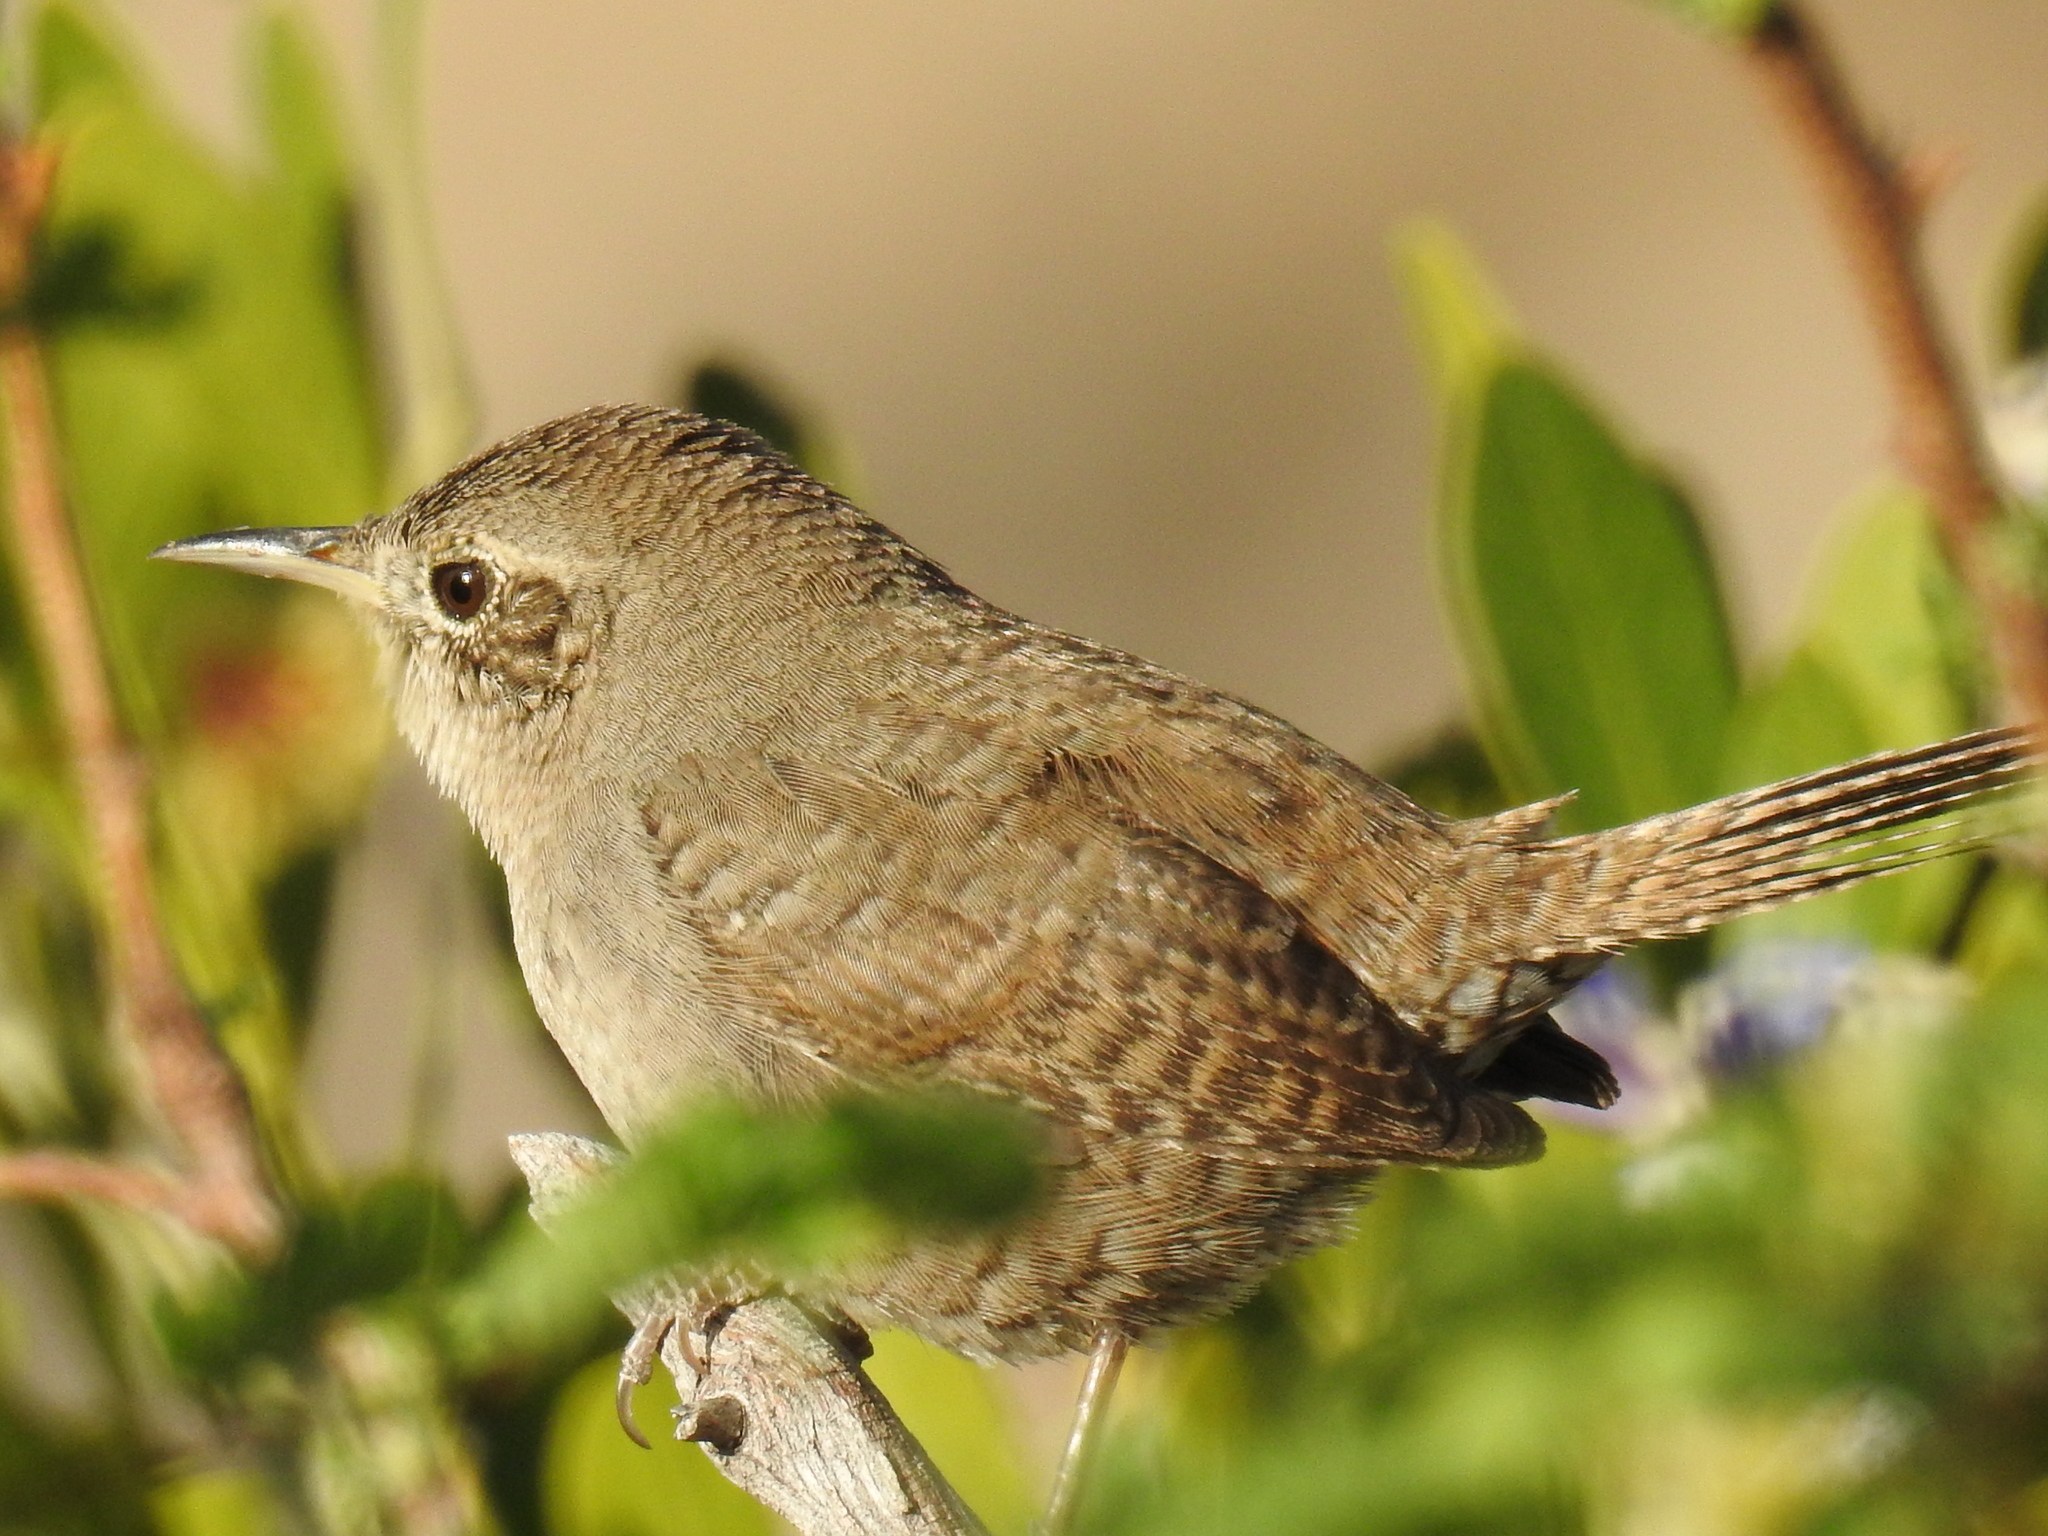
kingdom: Animalia
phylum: Chordata
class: Aves
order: Passeriformes
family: Troglodytidae
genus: Troglodytes
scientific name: Troglodytes aedon
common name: House wren
